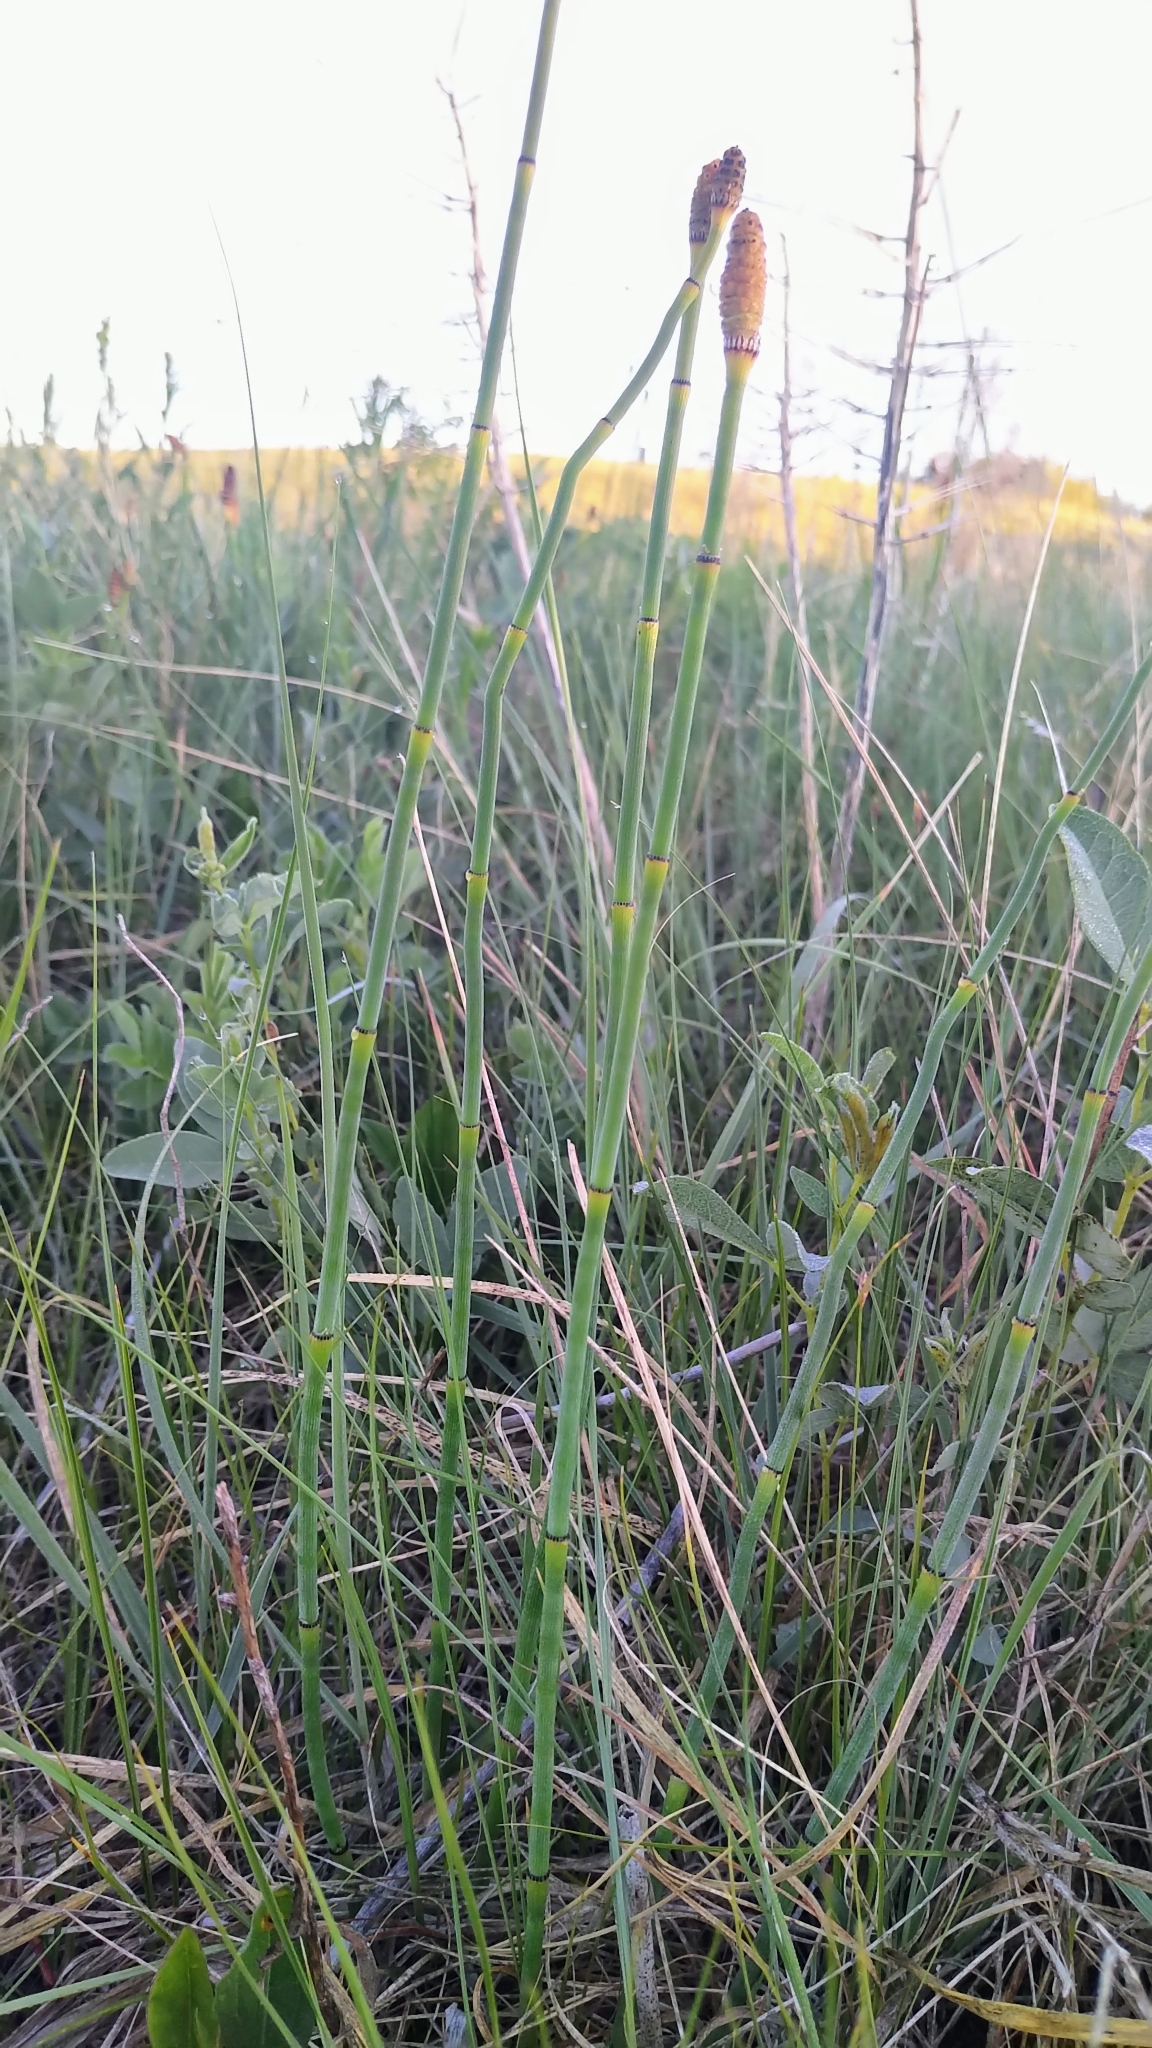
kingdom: Plantae
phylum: Tracheophyta
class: Polypodiopsida
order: Equisetales
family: Equisetaceae
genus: Equisetum
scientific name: Equisetum laevigatum
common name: Smooth scouring-rush
